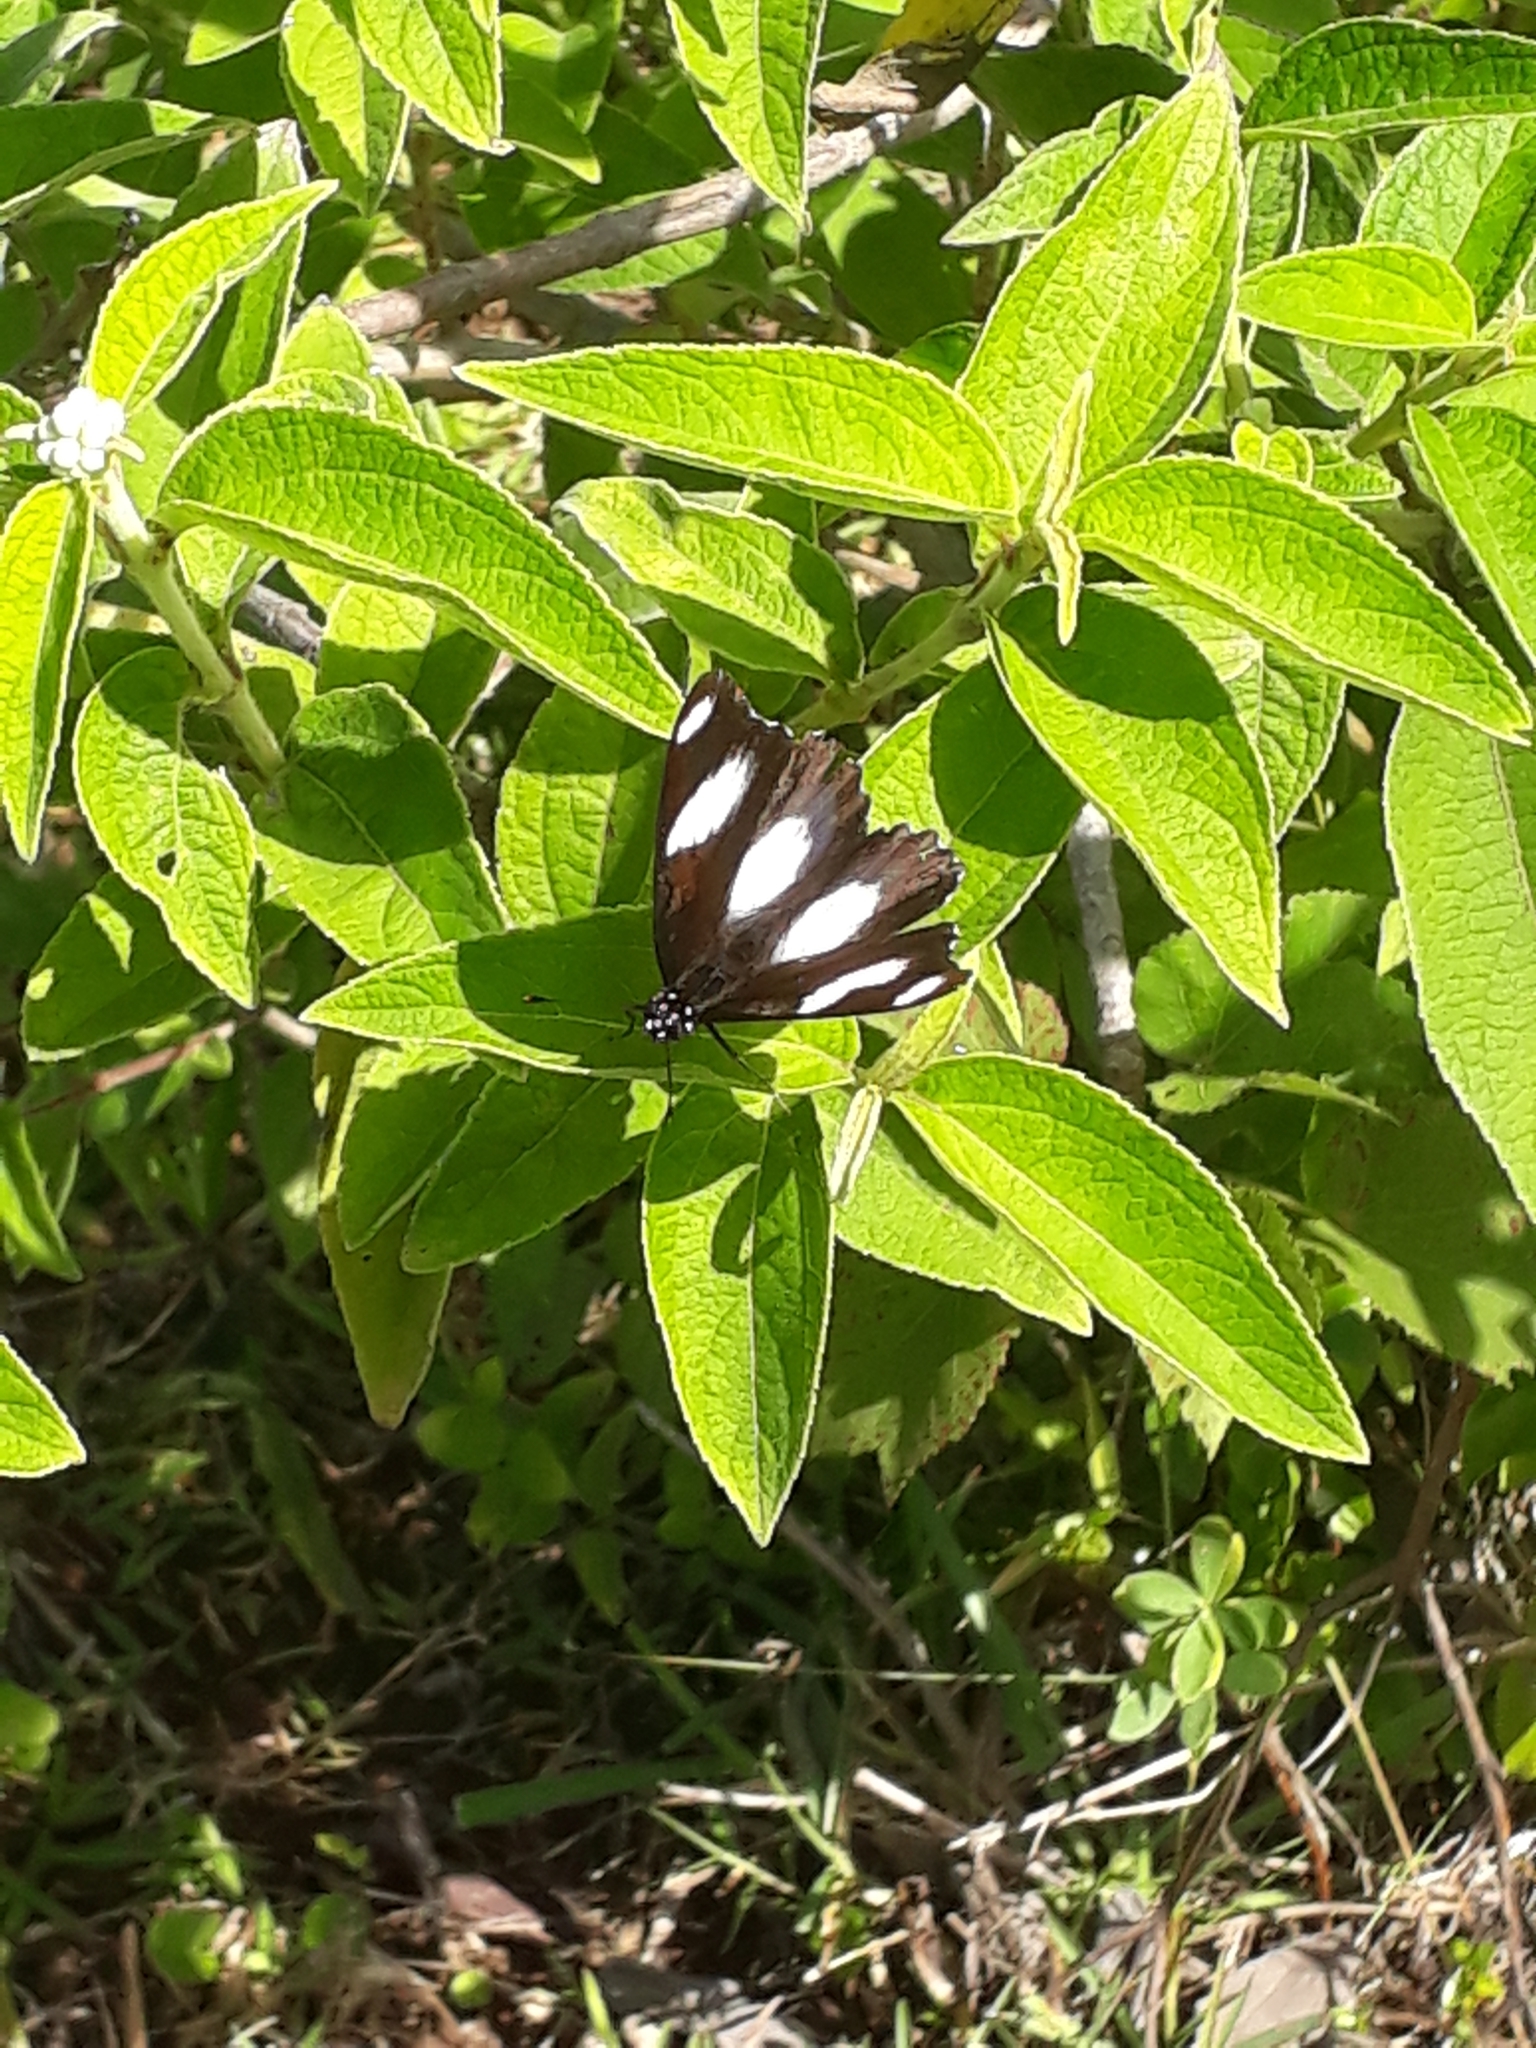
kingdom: Animalia
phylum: Arthropoda
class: Insecta
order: Lepidoptera
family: Nymphalidae
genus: Hypolimnas
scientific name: Hypolimnas misippus
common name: False plain tiger
